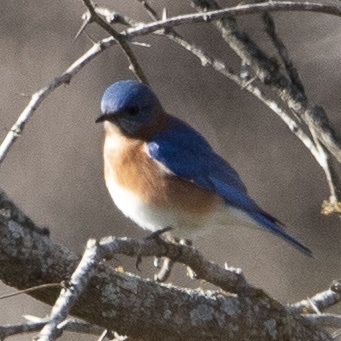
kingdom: Animalia
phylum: Chordata
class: Aves
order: Passeriformes
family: Turdidae
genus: Sialia
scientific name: Sialia sialis
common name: Eastern bluebird
